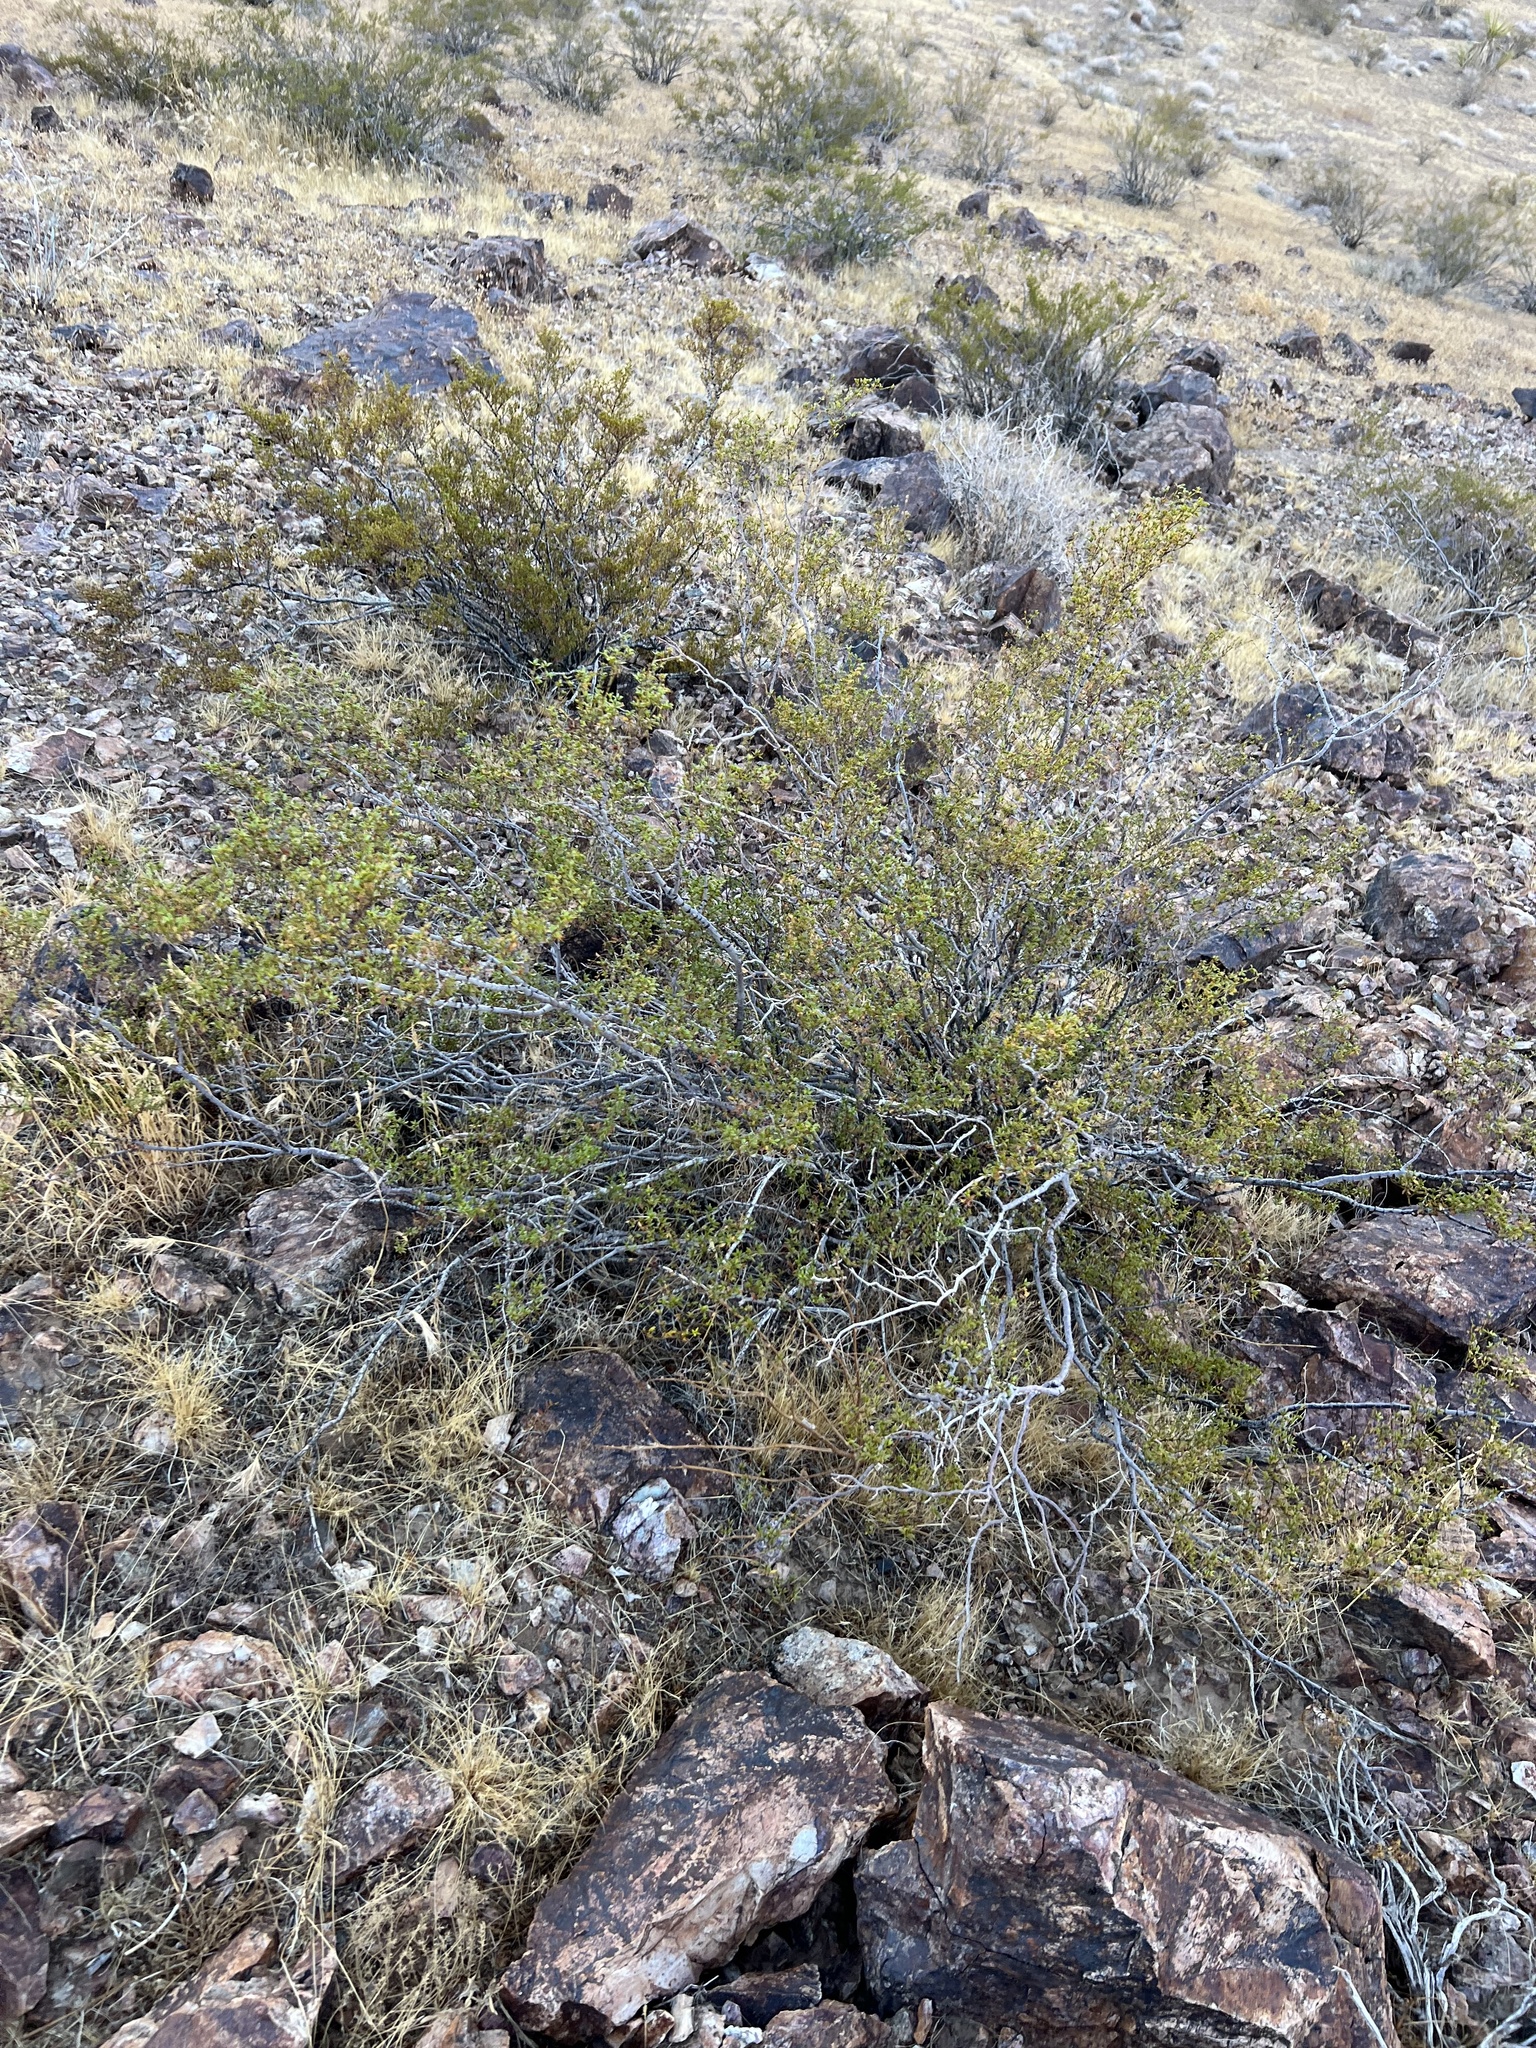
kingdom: Plantae
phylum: Tracheophyta
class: Magnoliopsida
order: Zygophyllales
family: Zygophyllaceae
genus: Larrea
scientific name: Larrea tridentata
